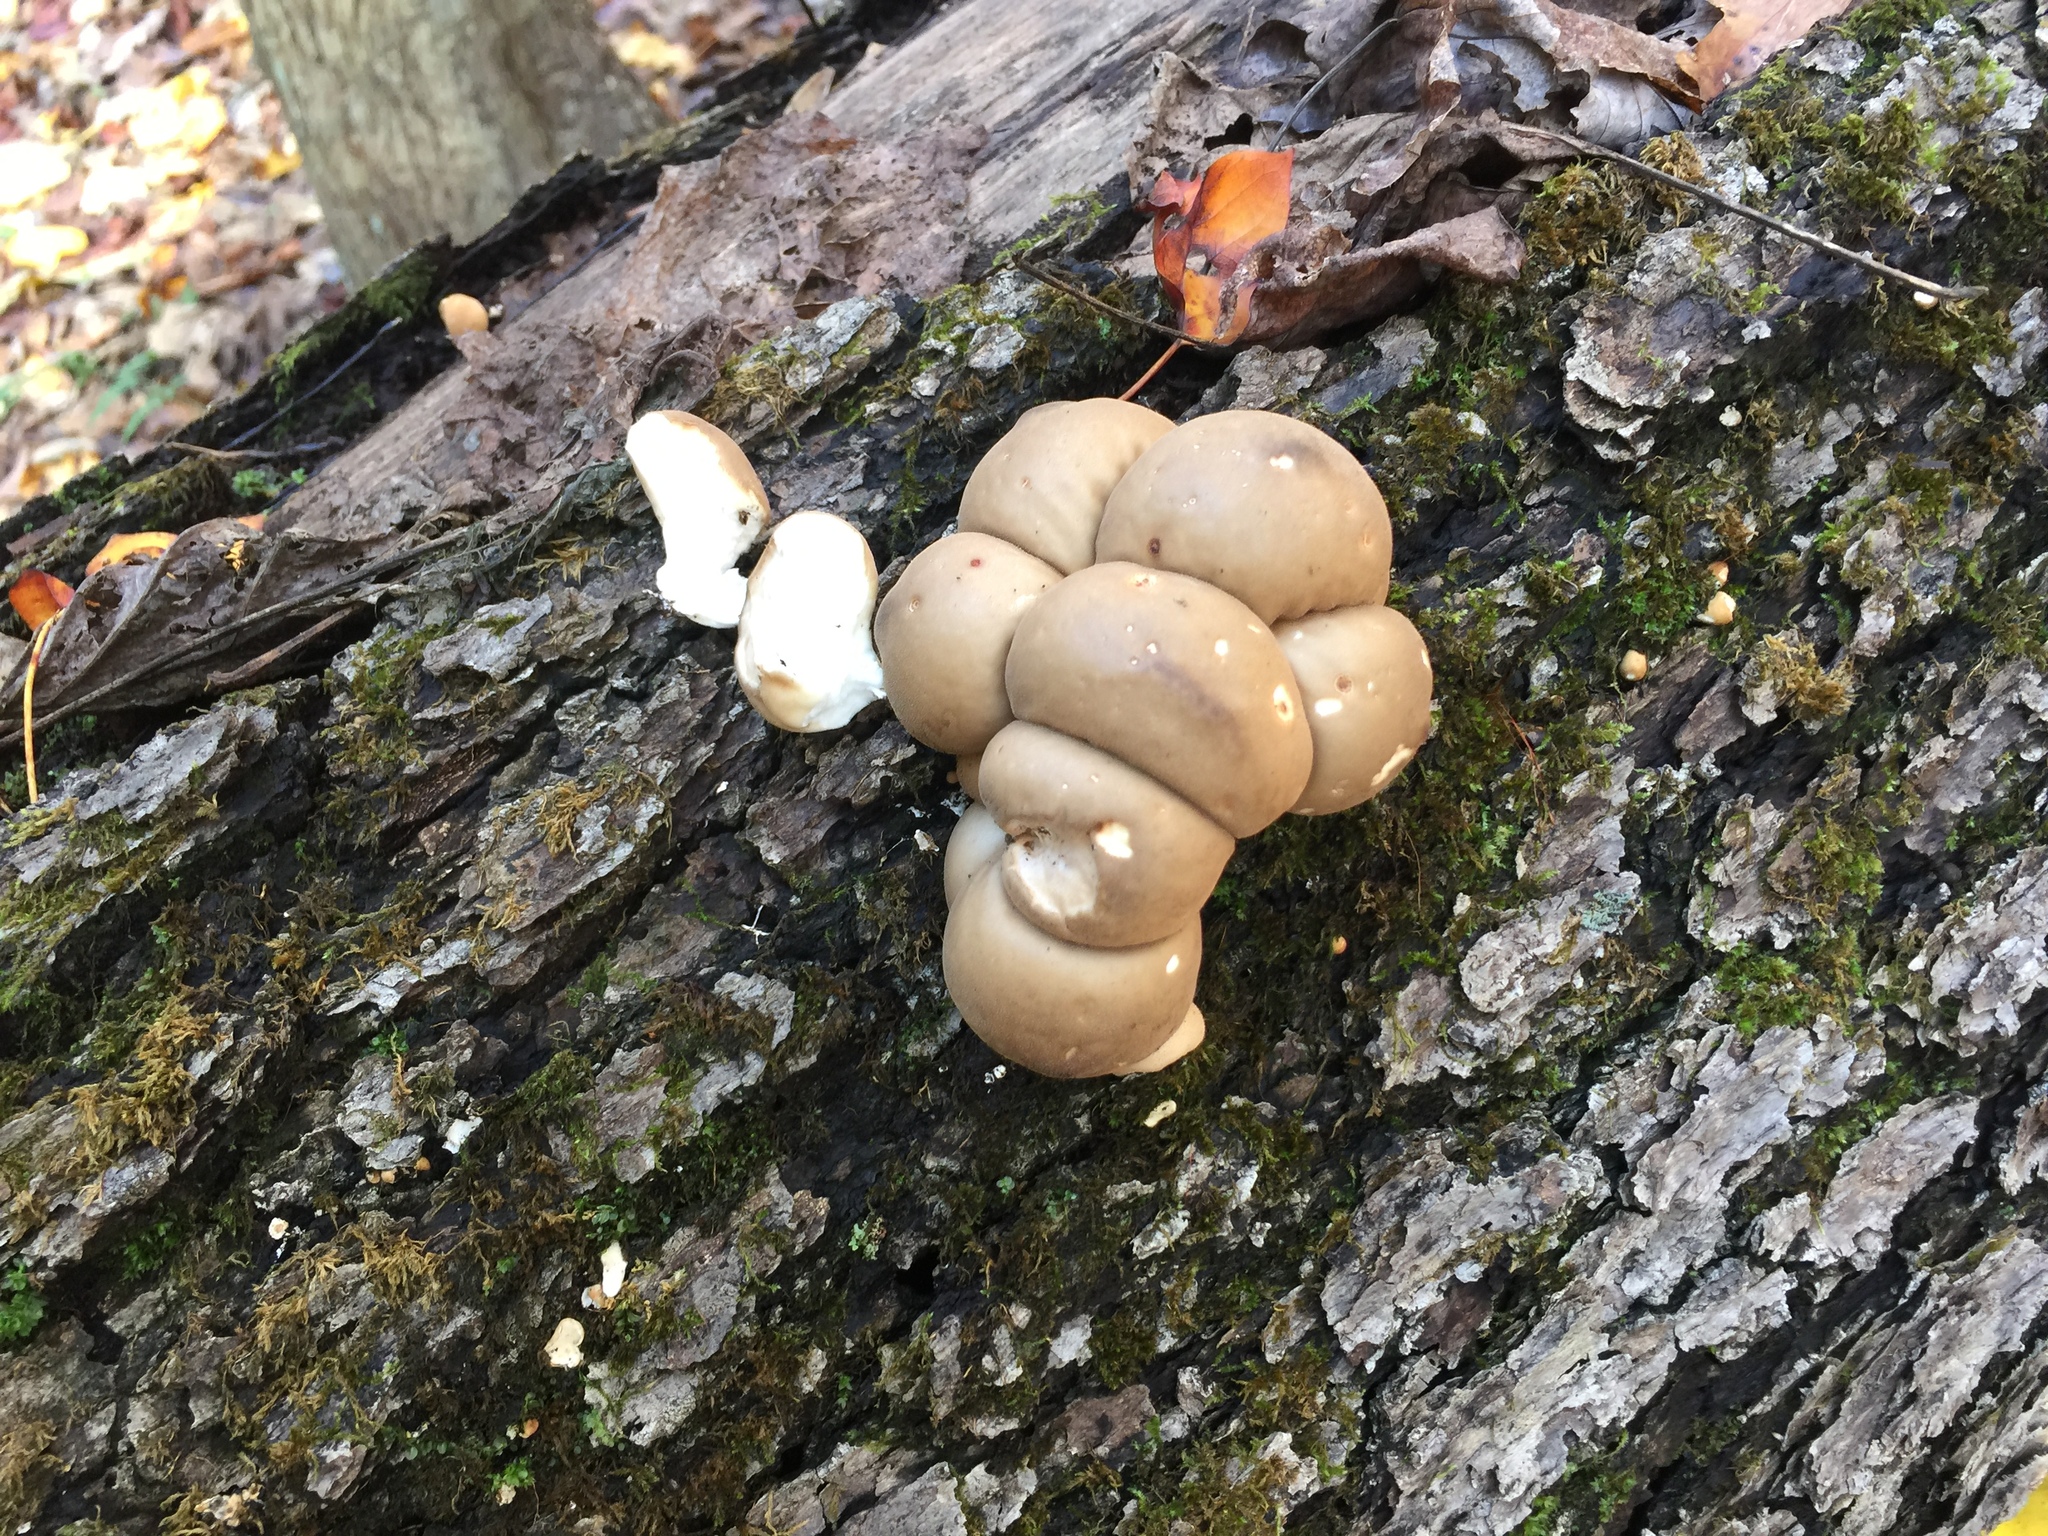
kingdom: Fungi
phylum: Basidiomycota
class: Agaricomycetes
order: Agaricales
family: Lycoperdaceae
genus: Apioperdon
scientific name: Apioperdon pyriforme
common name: Pear-shaped puffball
